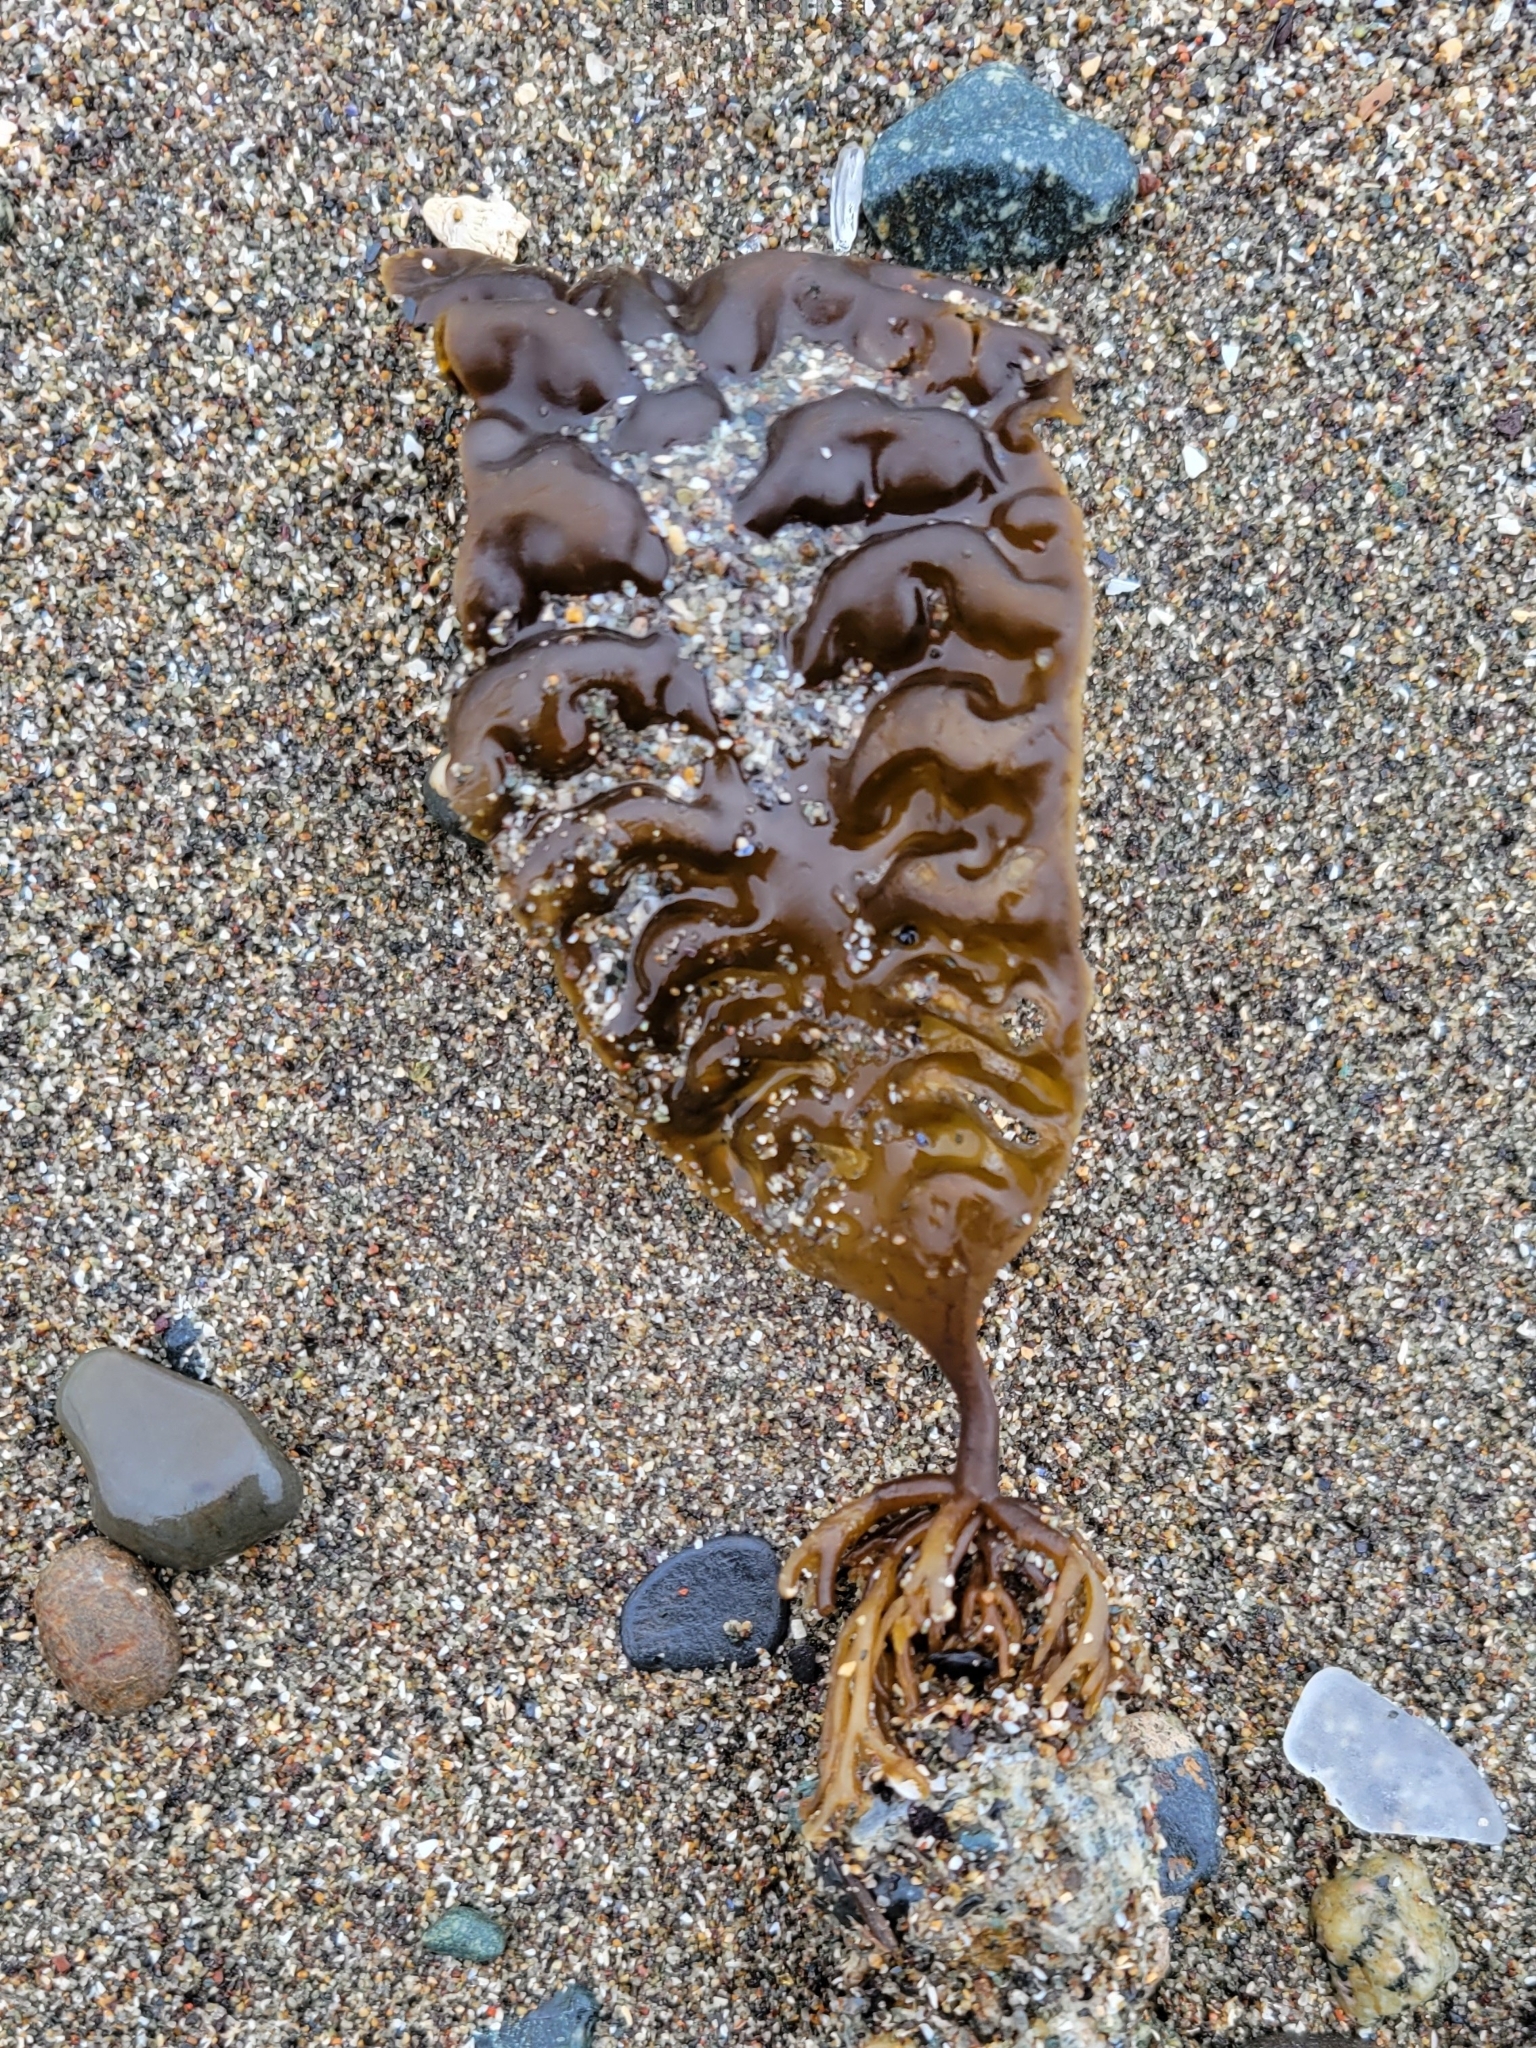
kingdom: Chromista
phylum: Ochrophyta
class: Phaeophyceae
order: Laminariales
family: Laminariaceae
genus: Saccharina
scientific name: Saccharina latissima
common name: Poor man's weather glass
